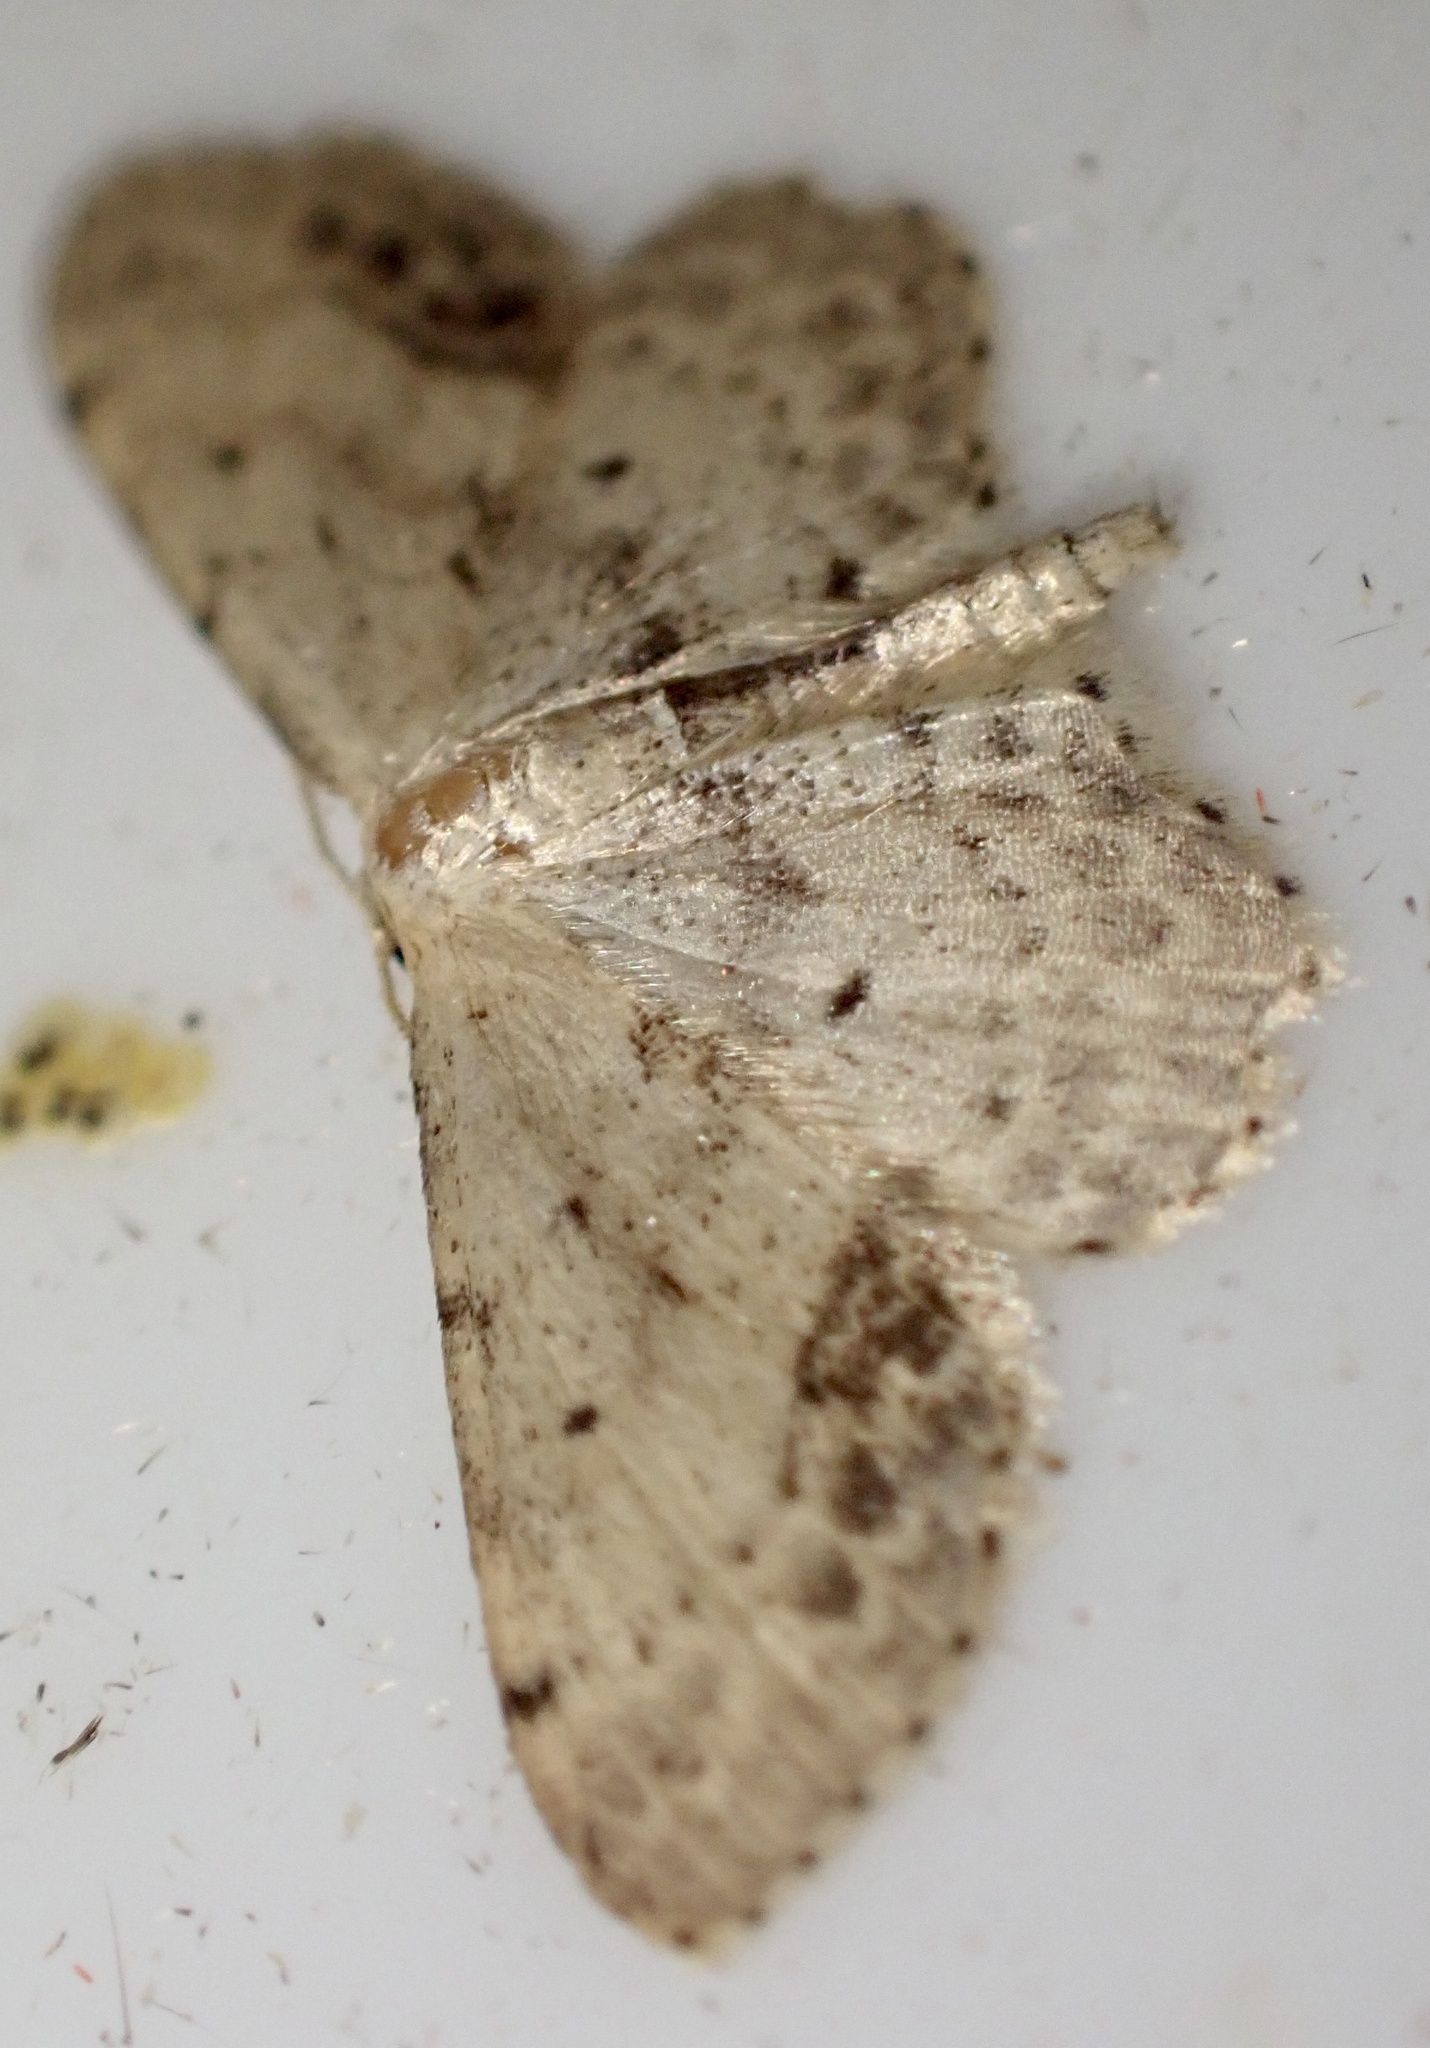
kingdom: Animalia
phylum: Arthropoda
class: Insecta
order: Lepidoptera
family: Geometridae
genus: Idaea
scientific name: Idaea dimidiata
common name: Single-dotted wave
